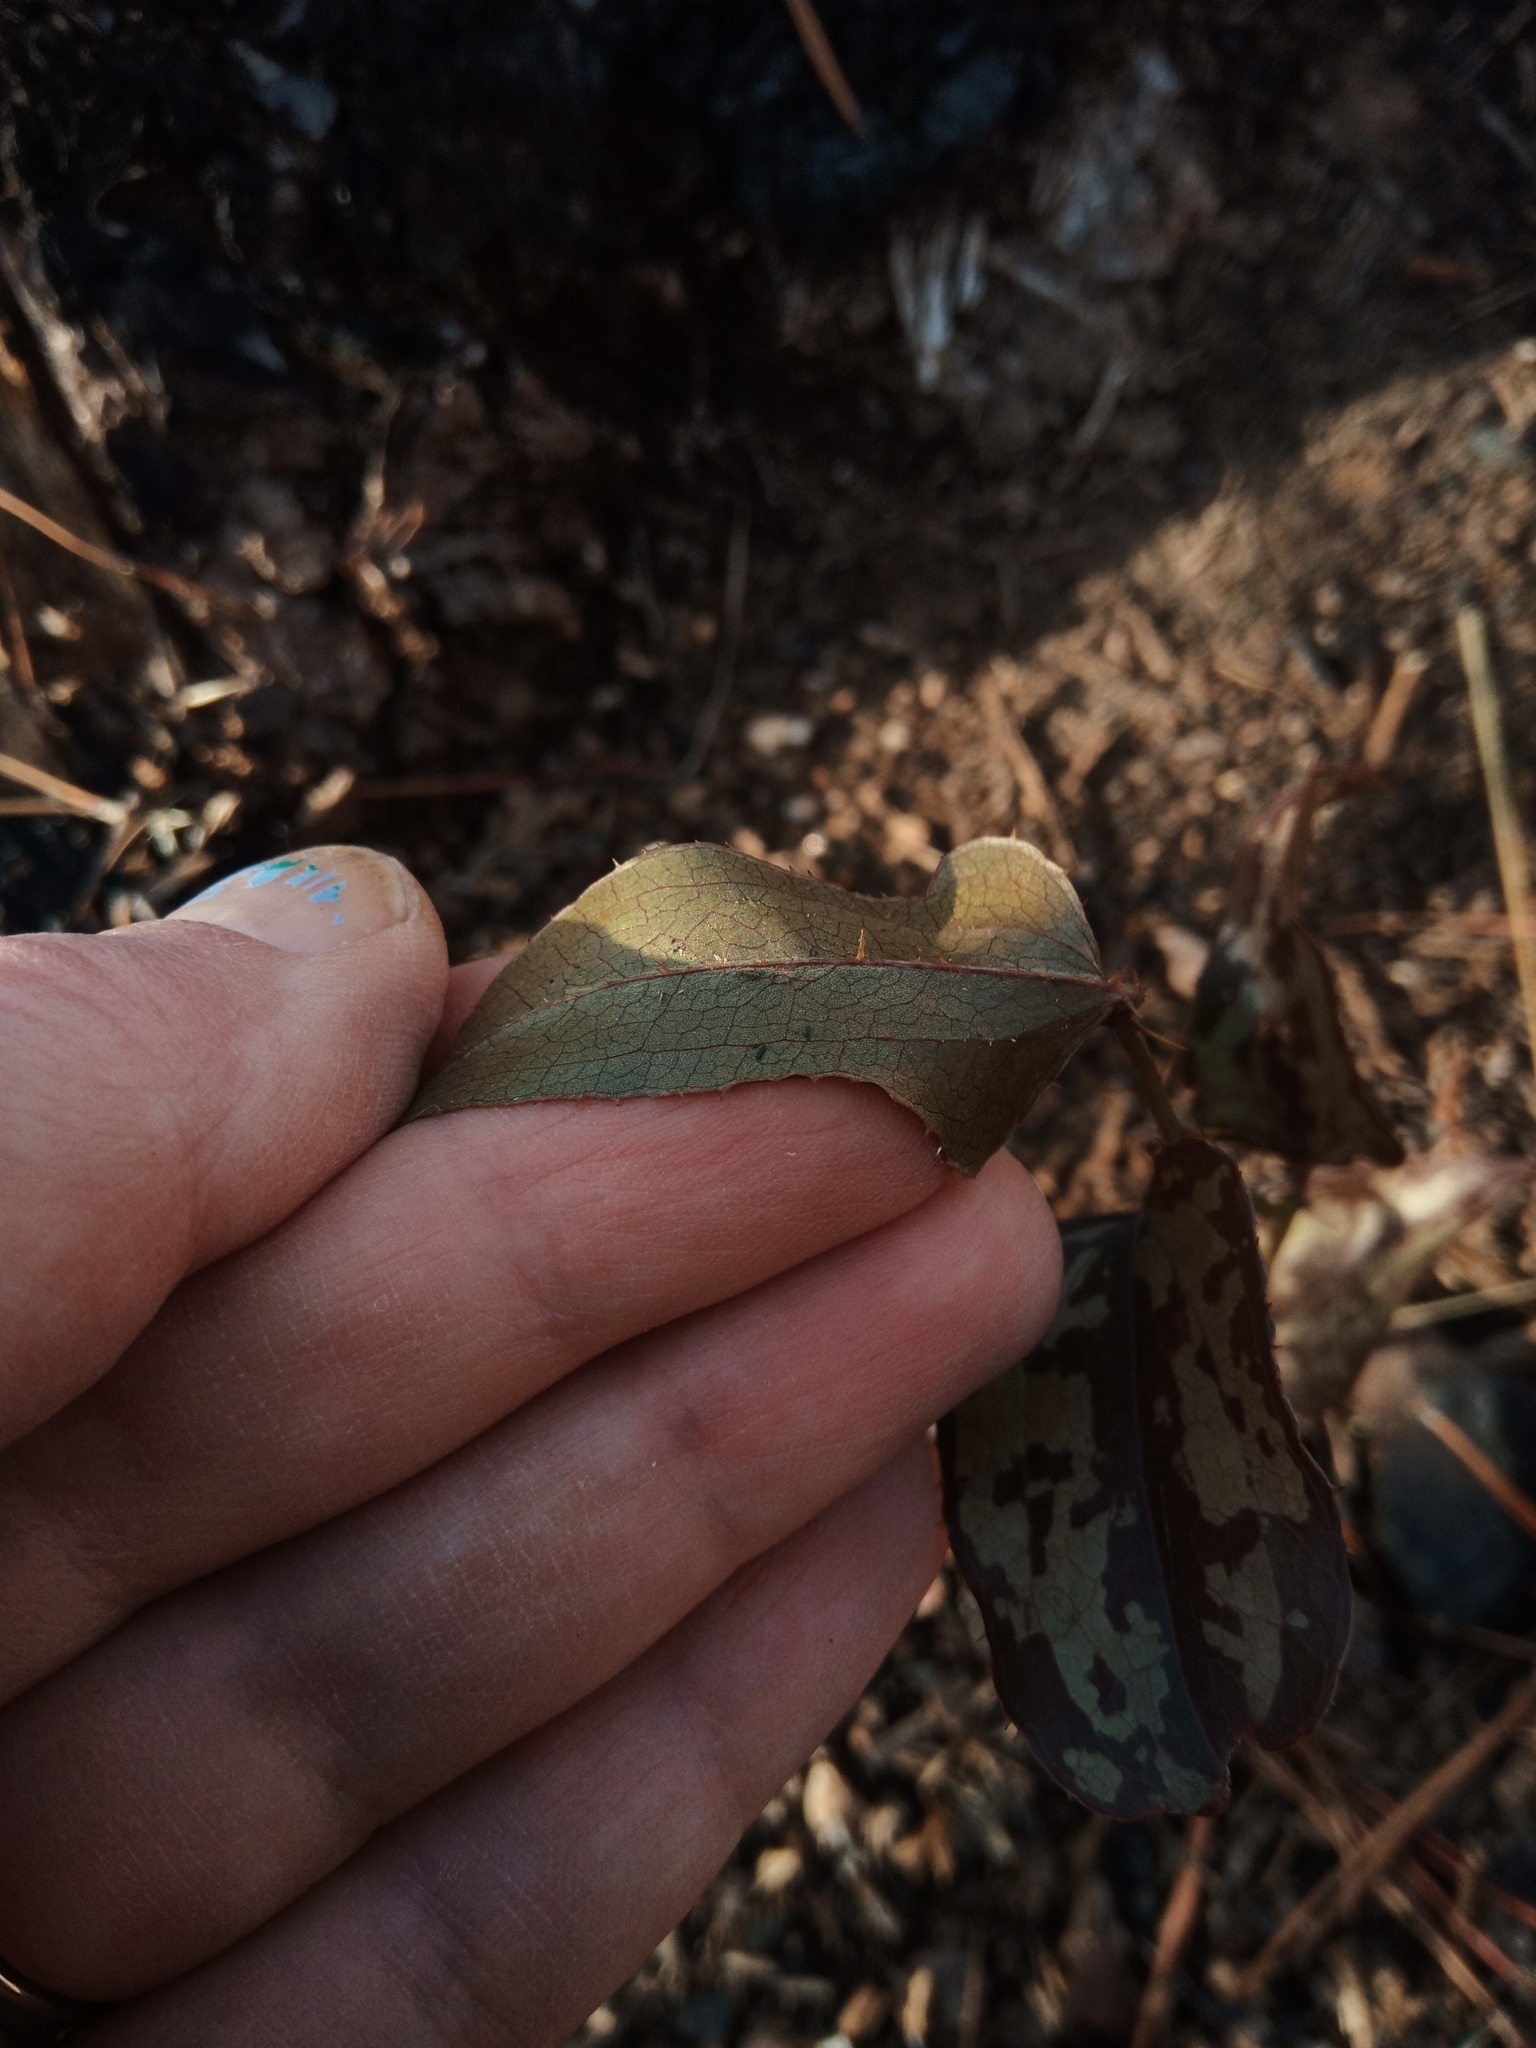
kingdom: Plantae
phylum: Tracheophyta
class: Liliopsida
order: Liliales
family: Smilacaceae
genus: Smilax
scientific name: Smilax bona-nox
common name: Catbrier
